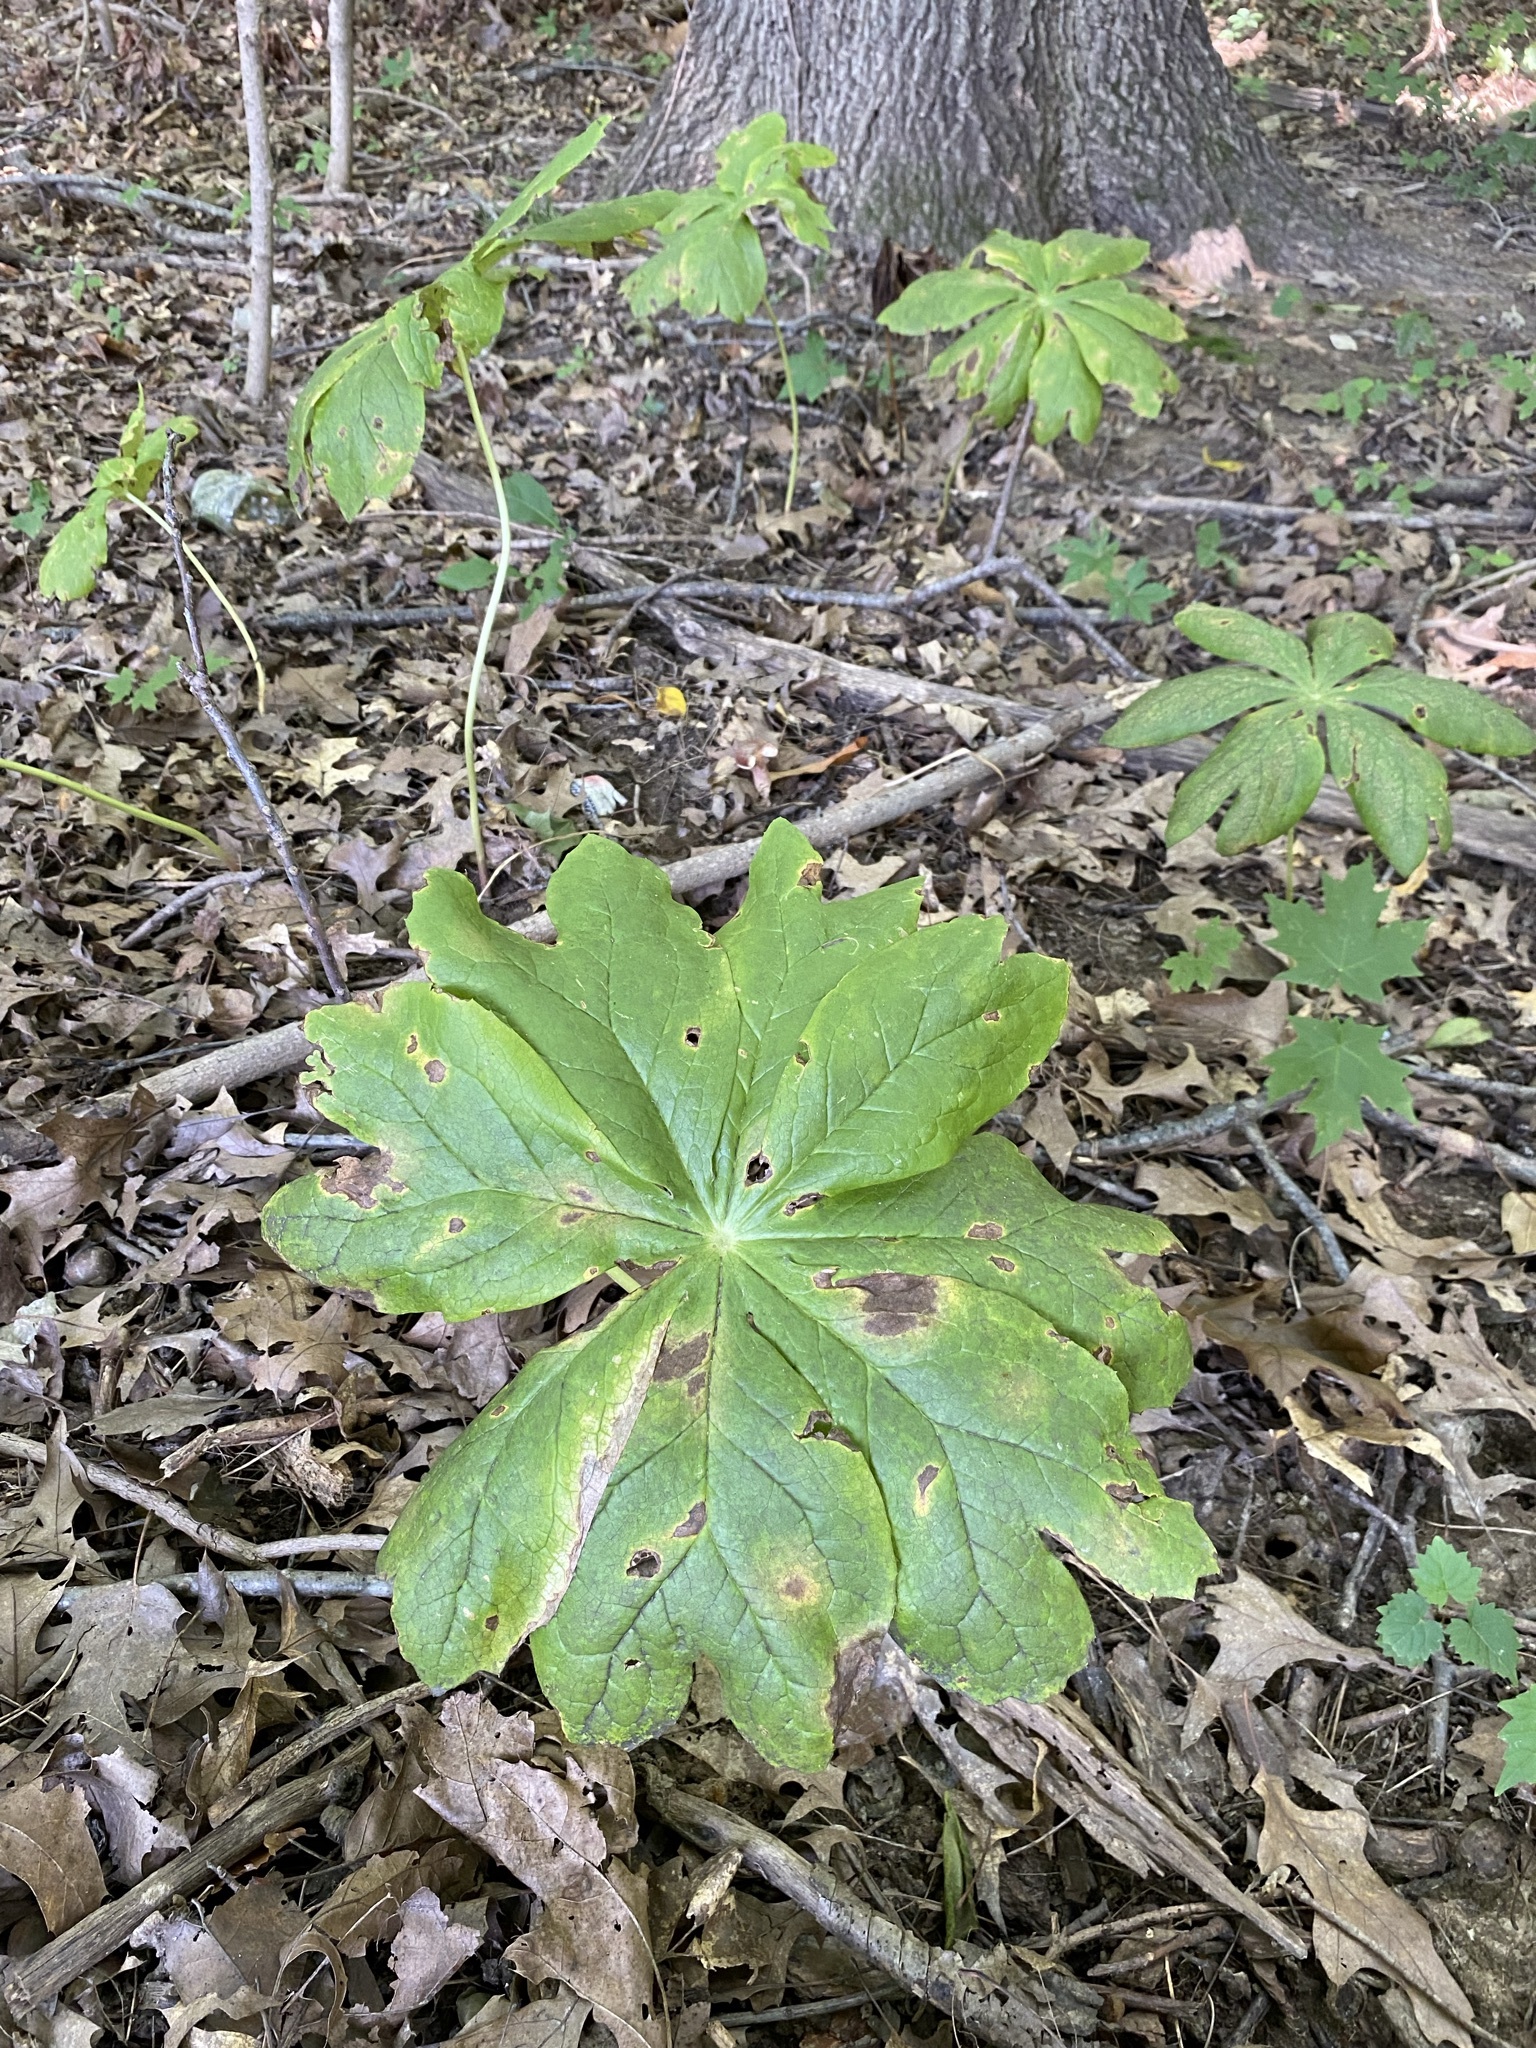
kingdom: Plantae
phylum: Tracheophyta
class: Magnoliopsida
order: Ranunculales
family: Berberidaceae
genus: Podophyllum
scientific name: Podophyllum peltatum
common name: Wild mandrake
